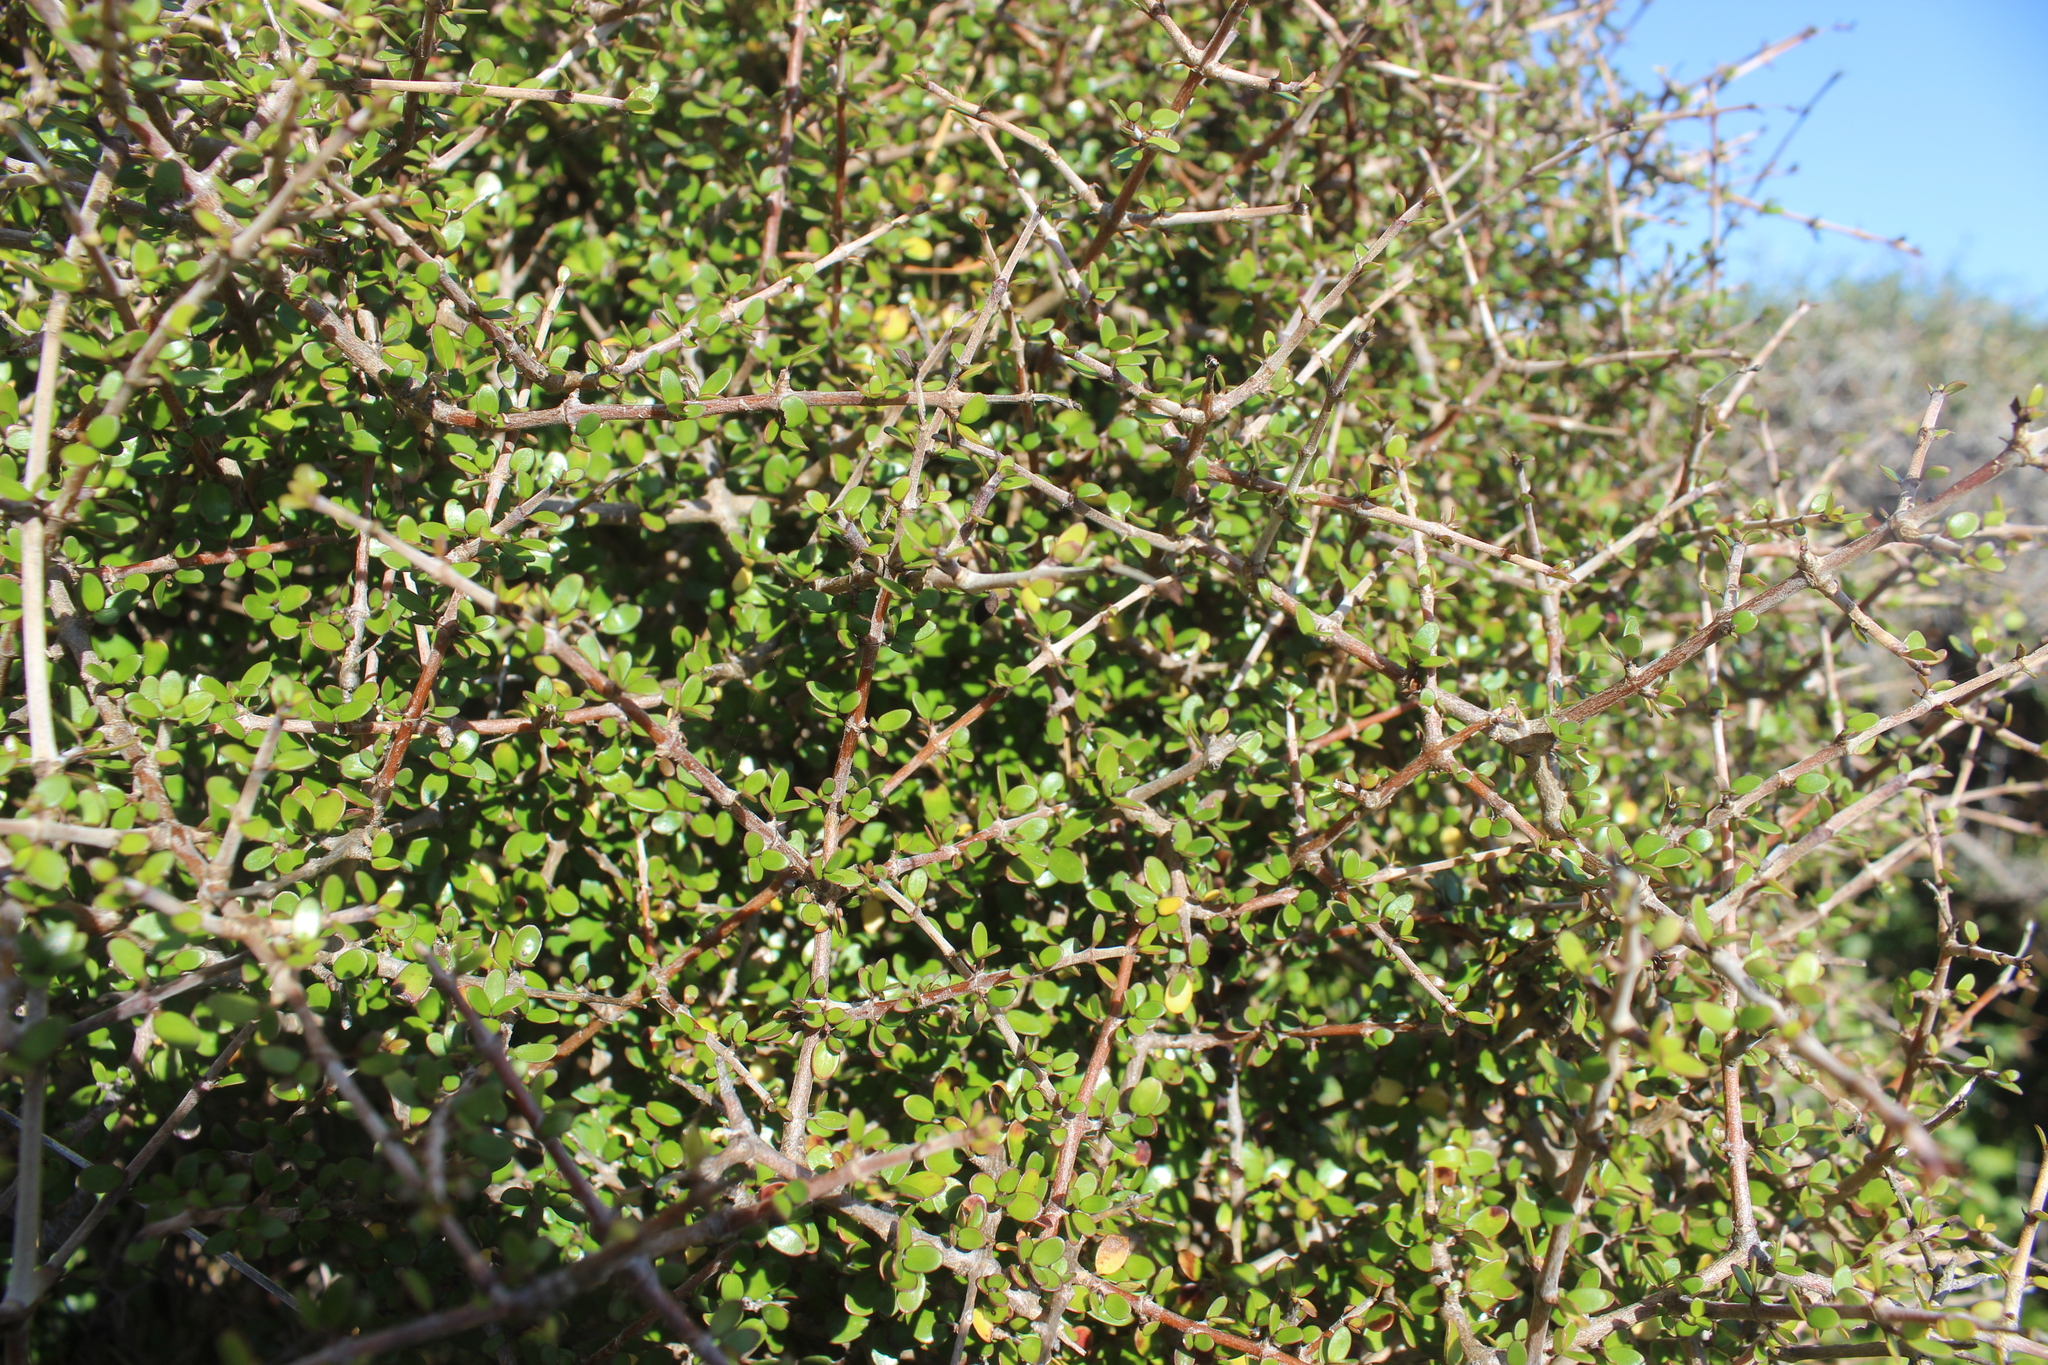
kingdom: Plantae
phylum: Tracheophyta
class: Magnoliopsida
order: Gentianales
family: Rubiaceae
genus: Coprosma
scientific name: Coprosma propinqua
